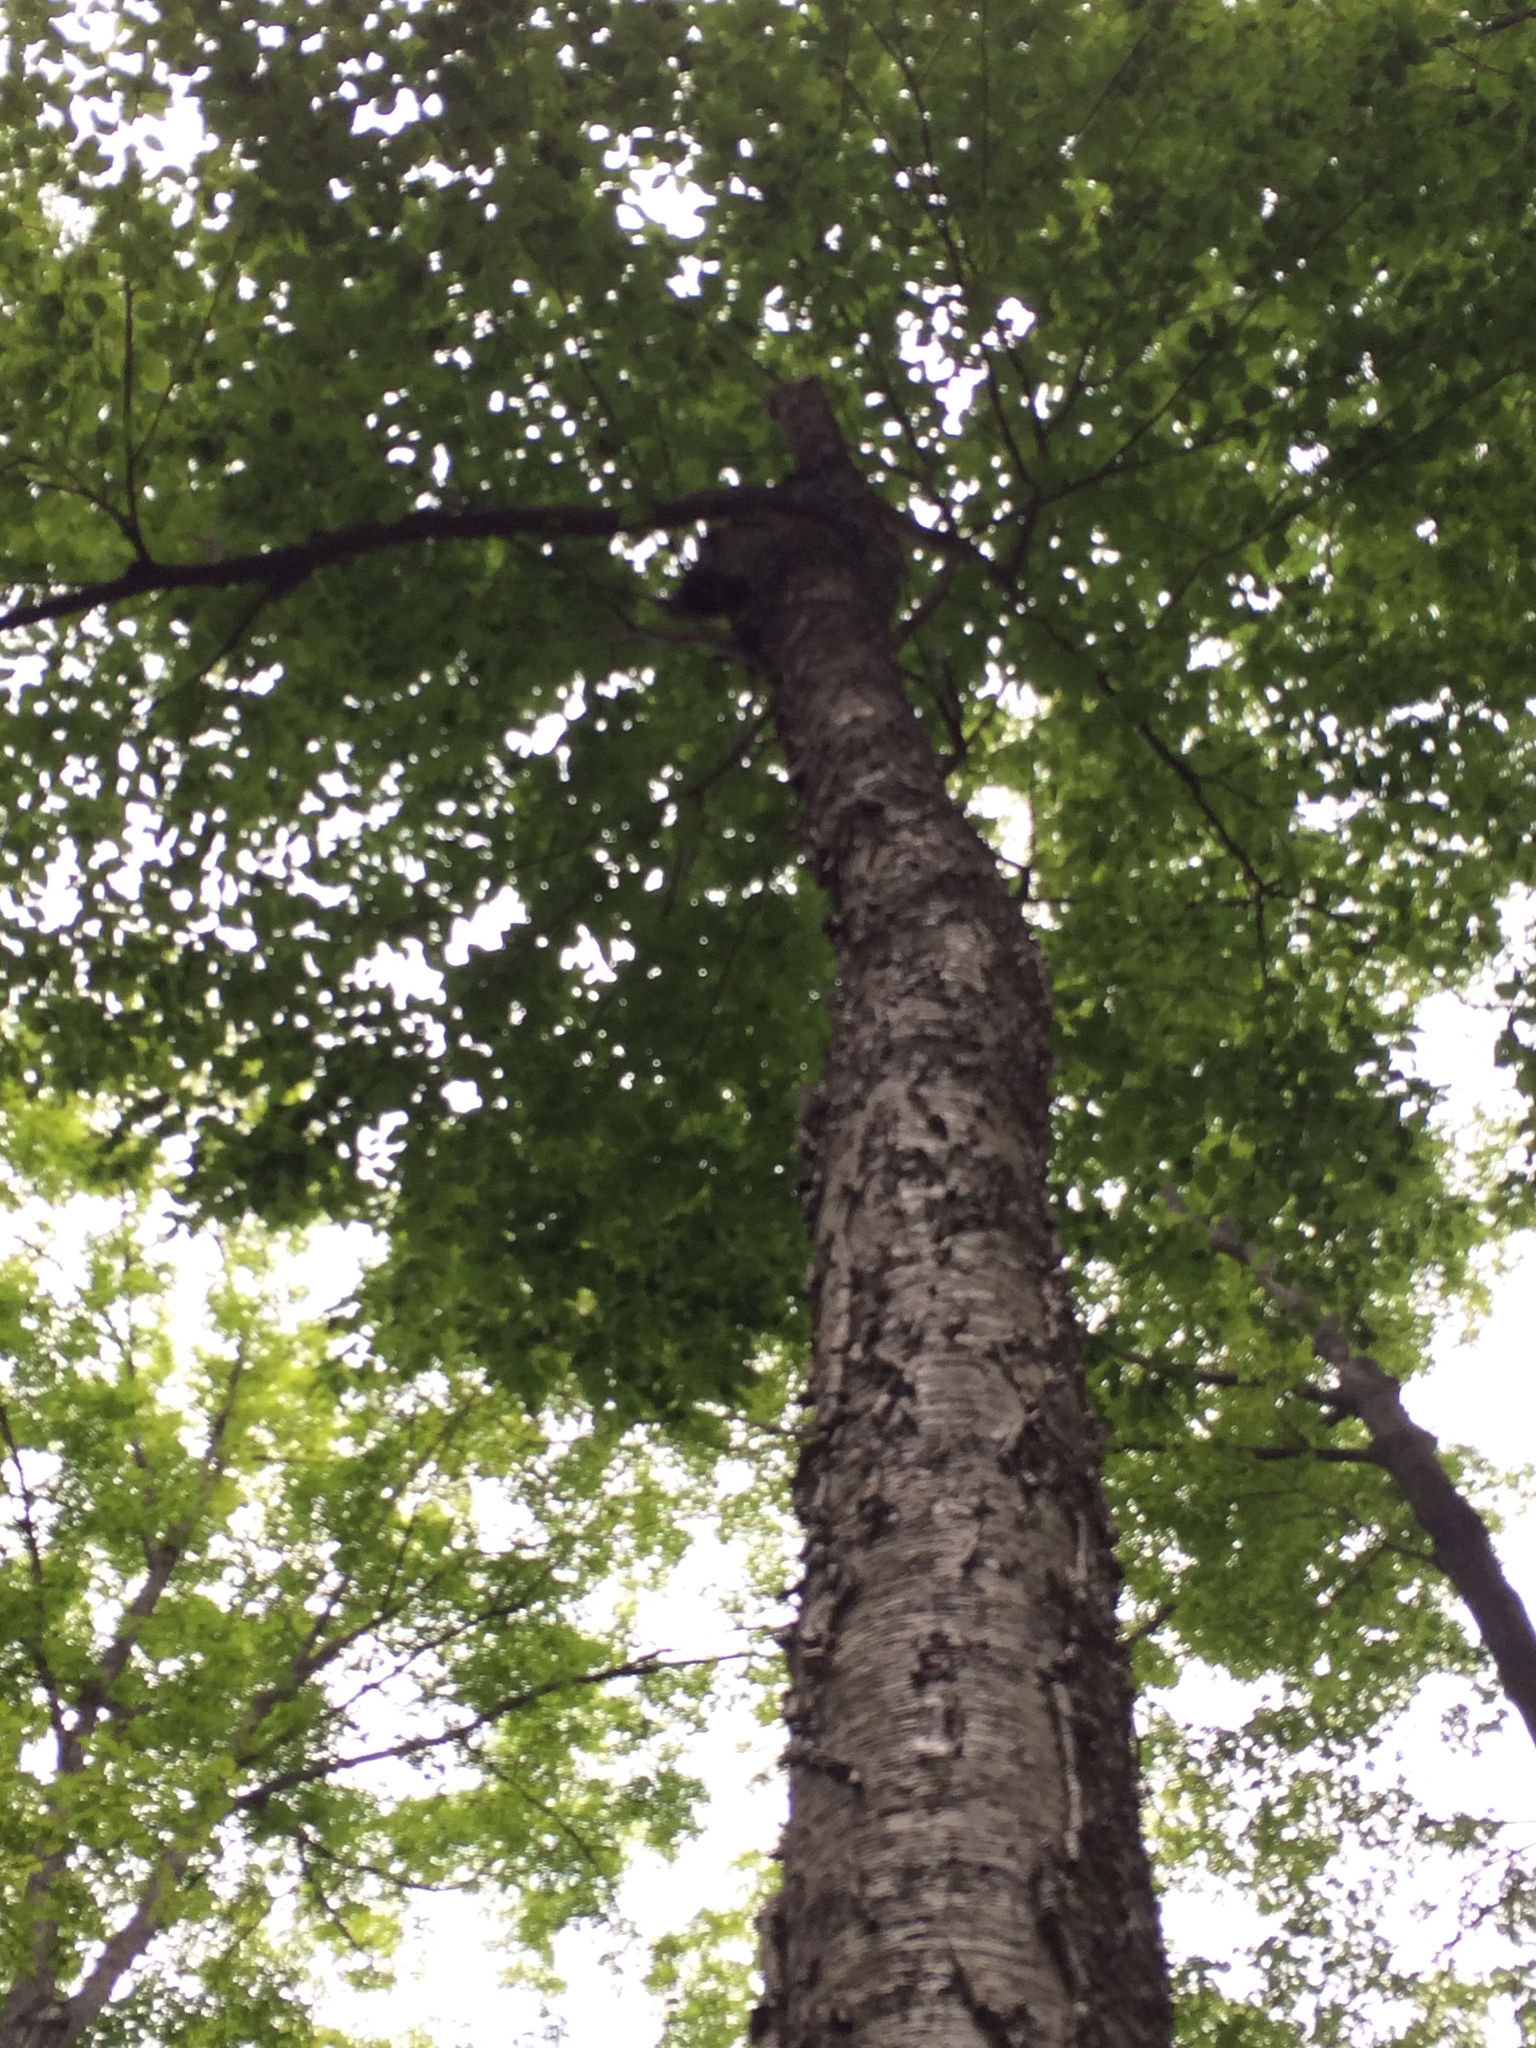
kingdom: Plantae
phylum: Tracheophyta
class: Magnoliopsida
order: Fagales
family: Betulaceae
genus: Betula
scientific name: Betula alleghaniensis
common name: Yellow birch
